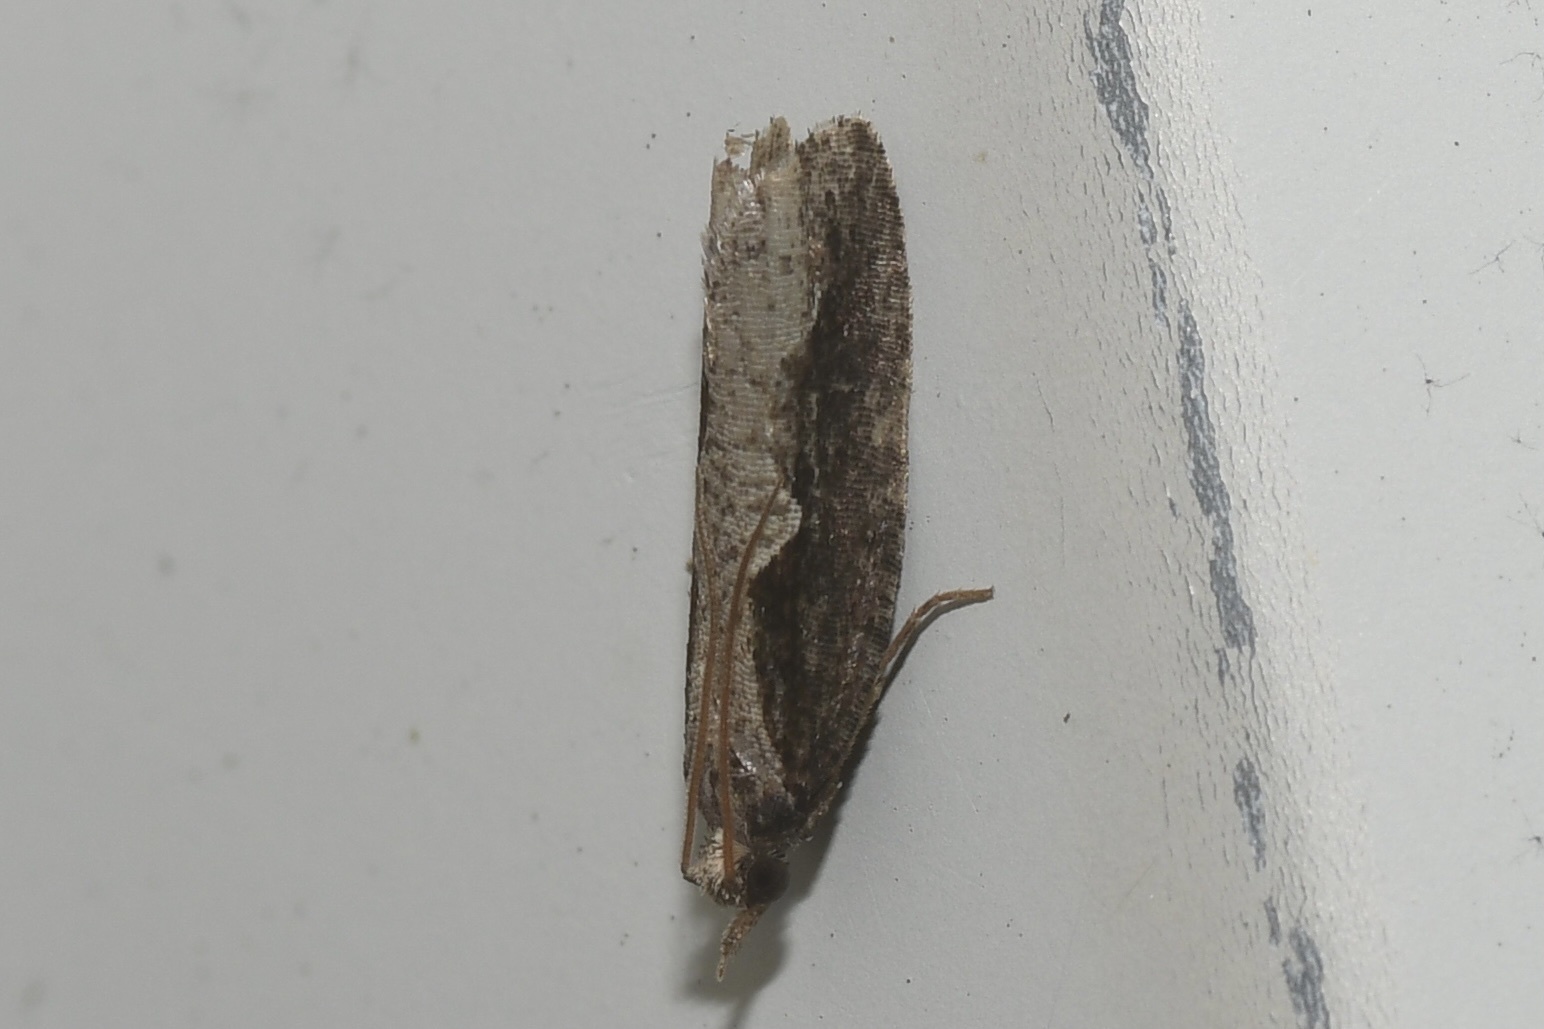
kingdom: Animalia
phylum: Arthropoda
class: Insecta
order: Lepidoptera
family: Tortricidae
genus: Epinotia
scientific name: Epinotia lindana
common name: Diamondback epinotia moth
